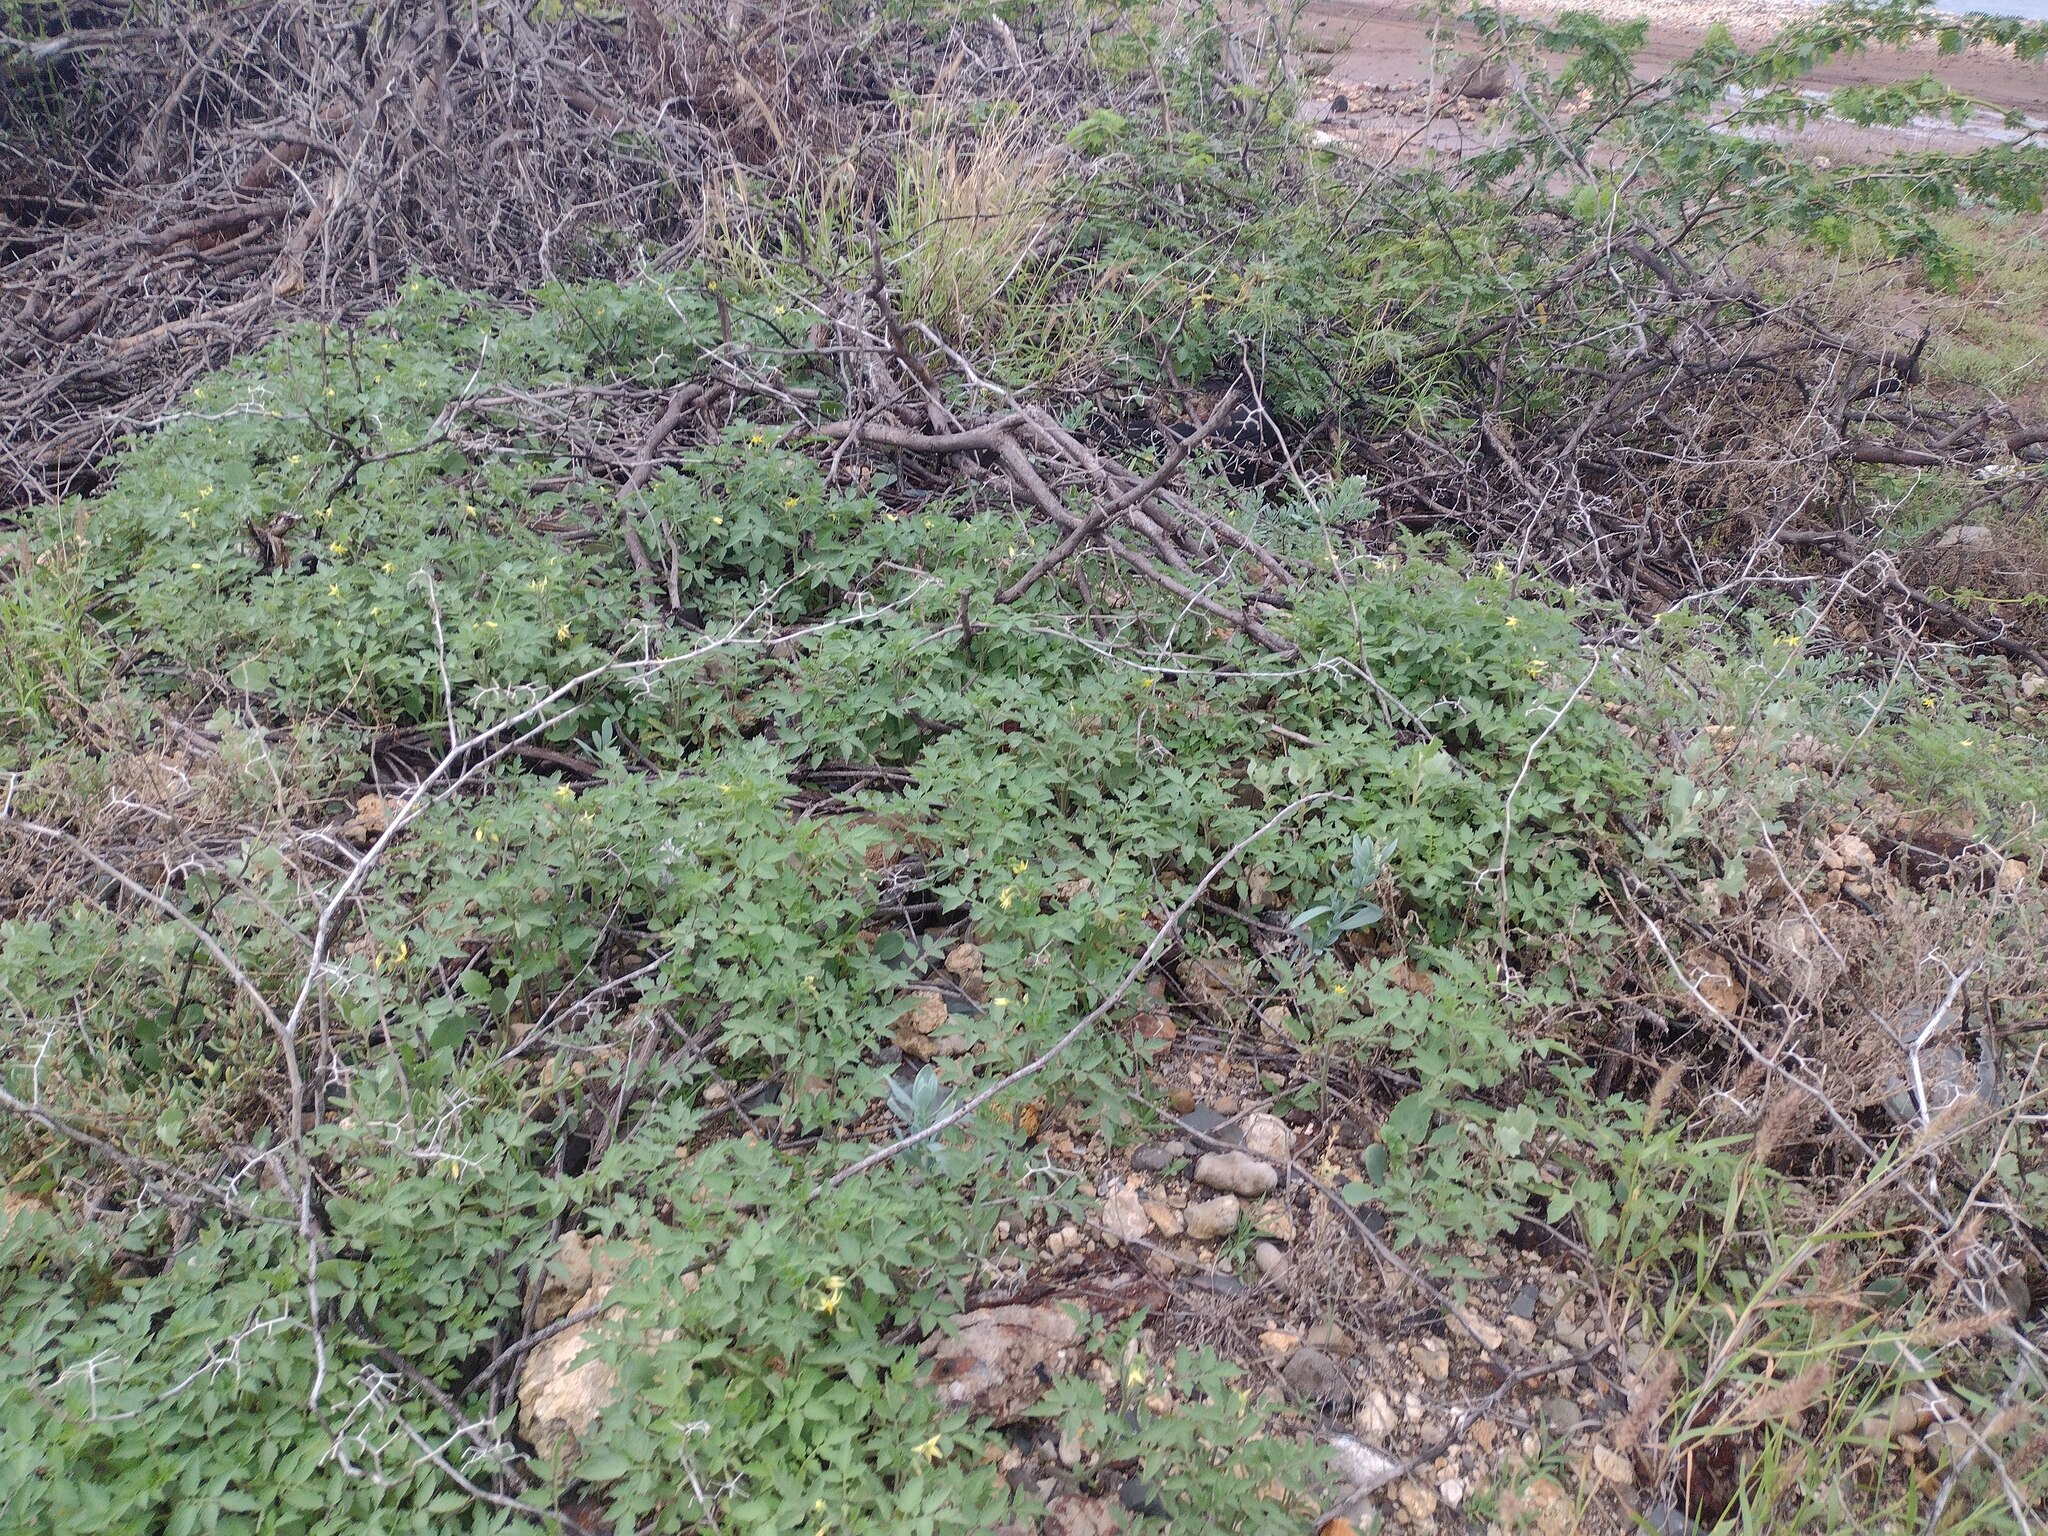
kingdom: Plantae
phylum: Tracheophyta
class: Magnoliopsida
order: Solanales
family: Solanaceae
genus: Solanum
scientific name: Solanum lycopersicum
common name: Garden tomato
